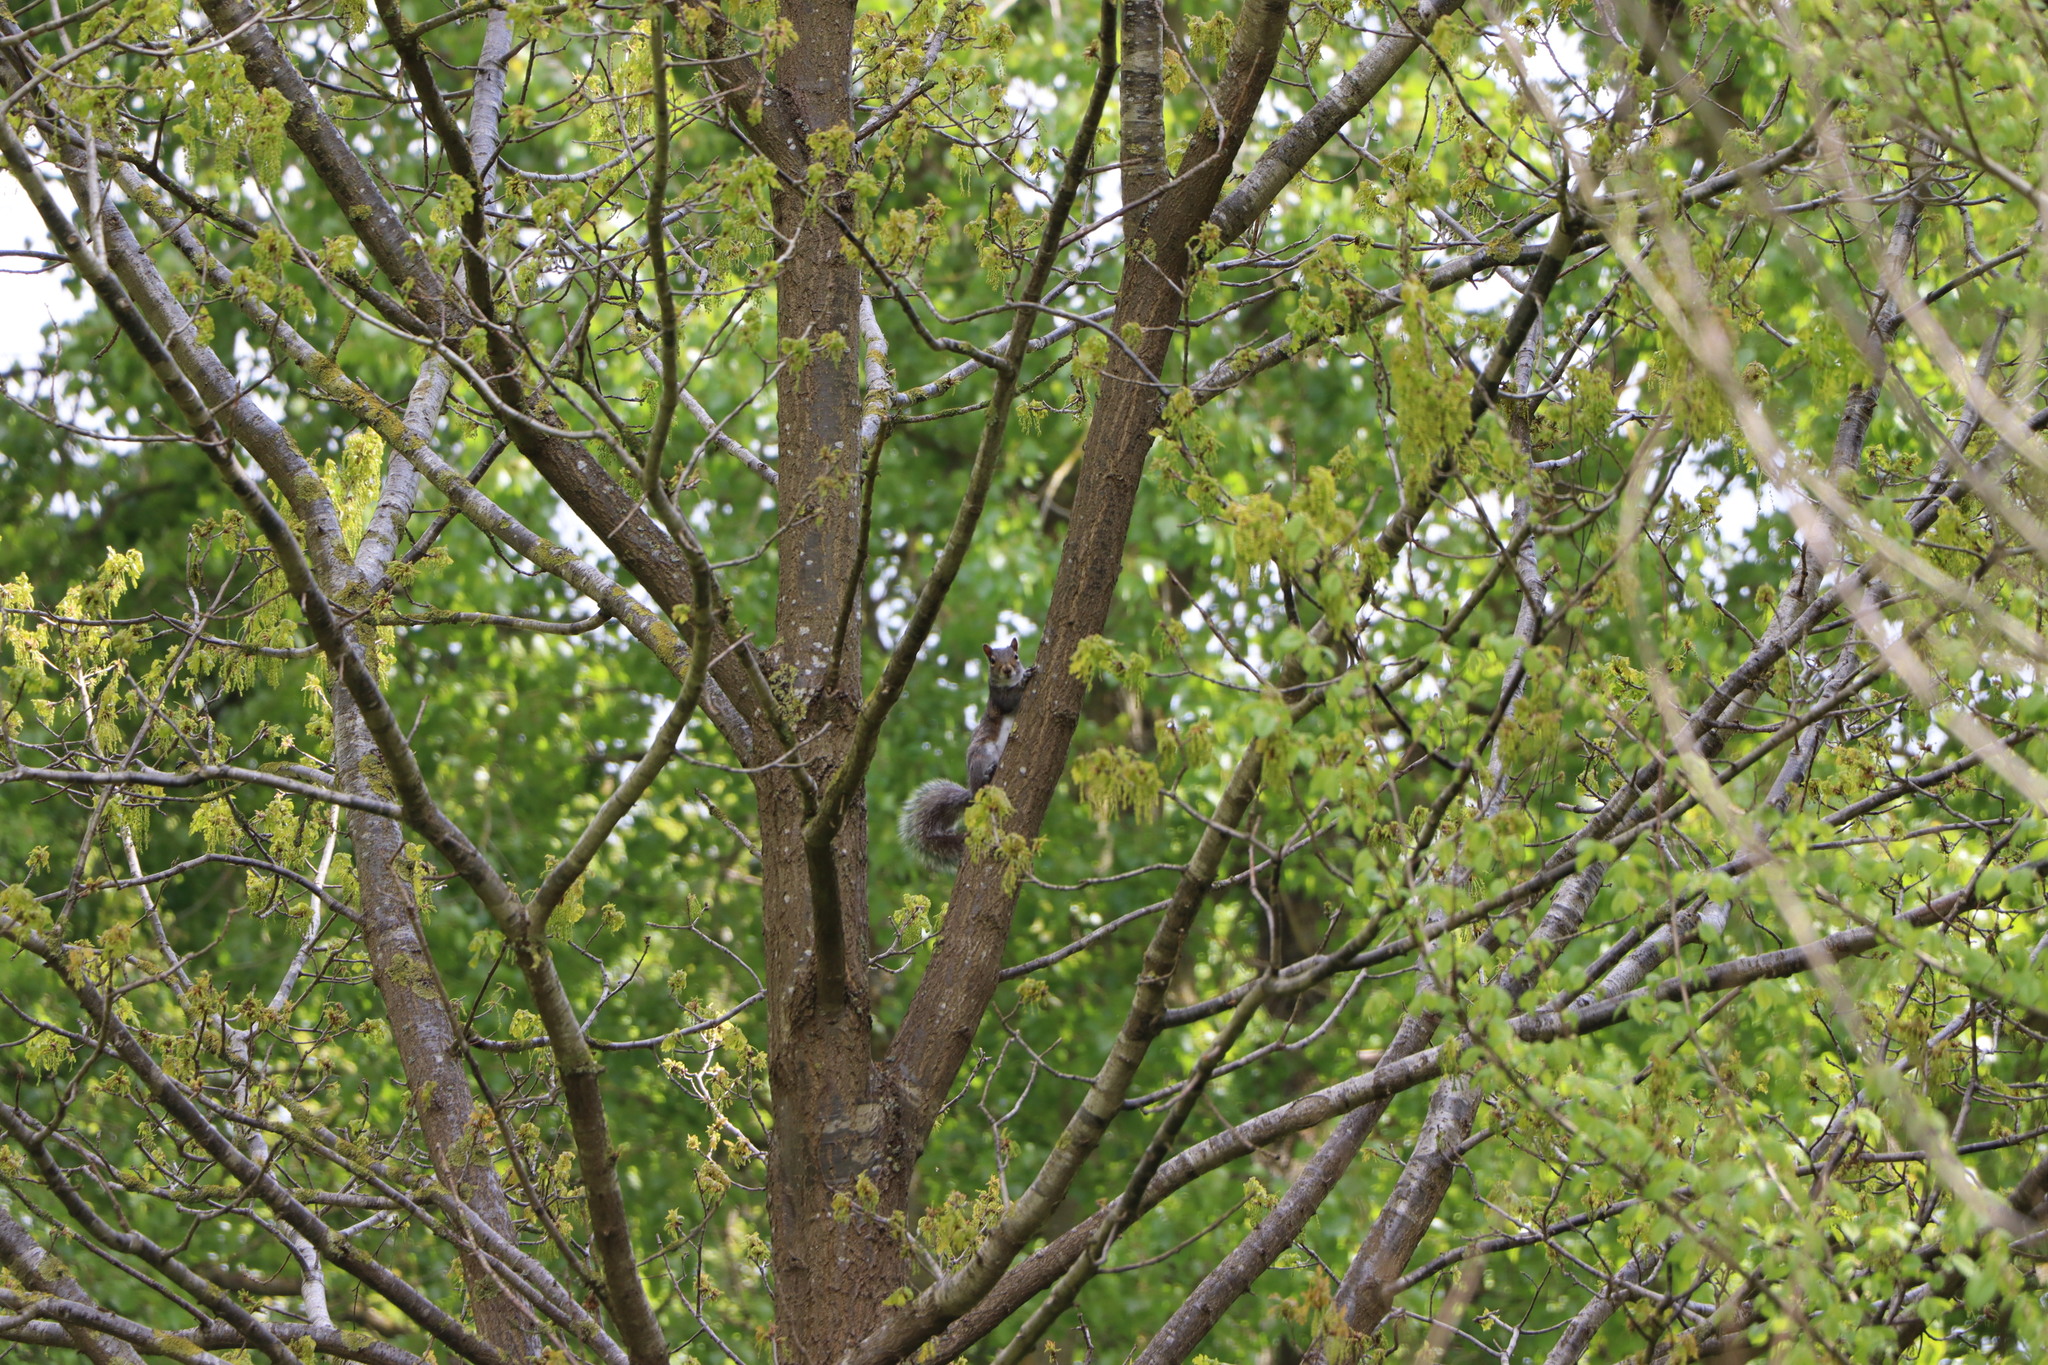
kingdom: Animalia
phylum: Chordata
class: Mammalia
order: Rodentia
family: Sciuridae
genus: Sciurus
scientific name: Sciurus carolinensis
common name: Eastern gray squirrel
